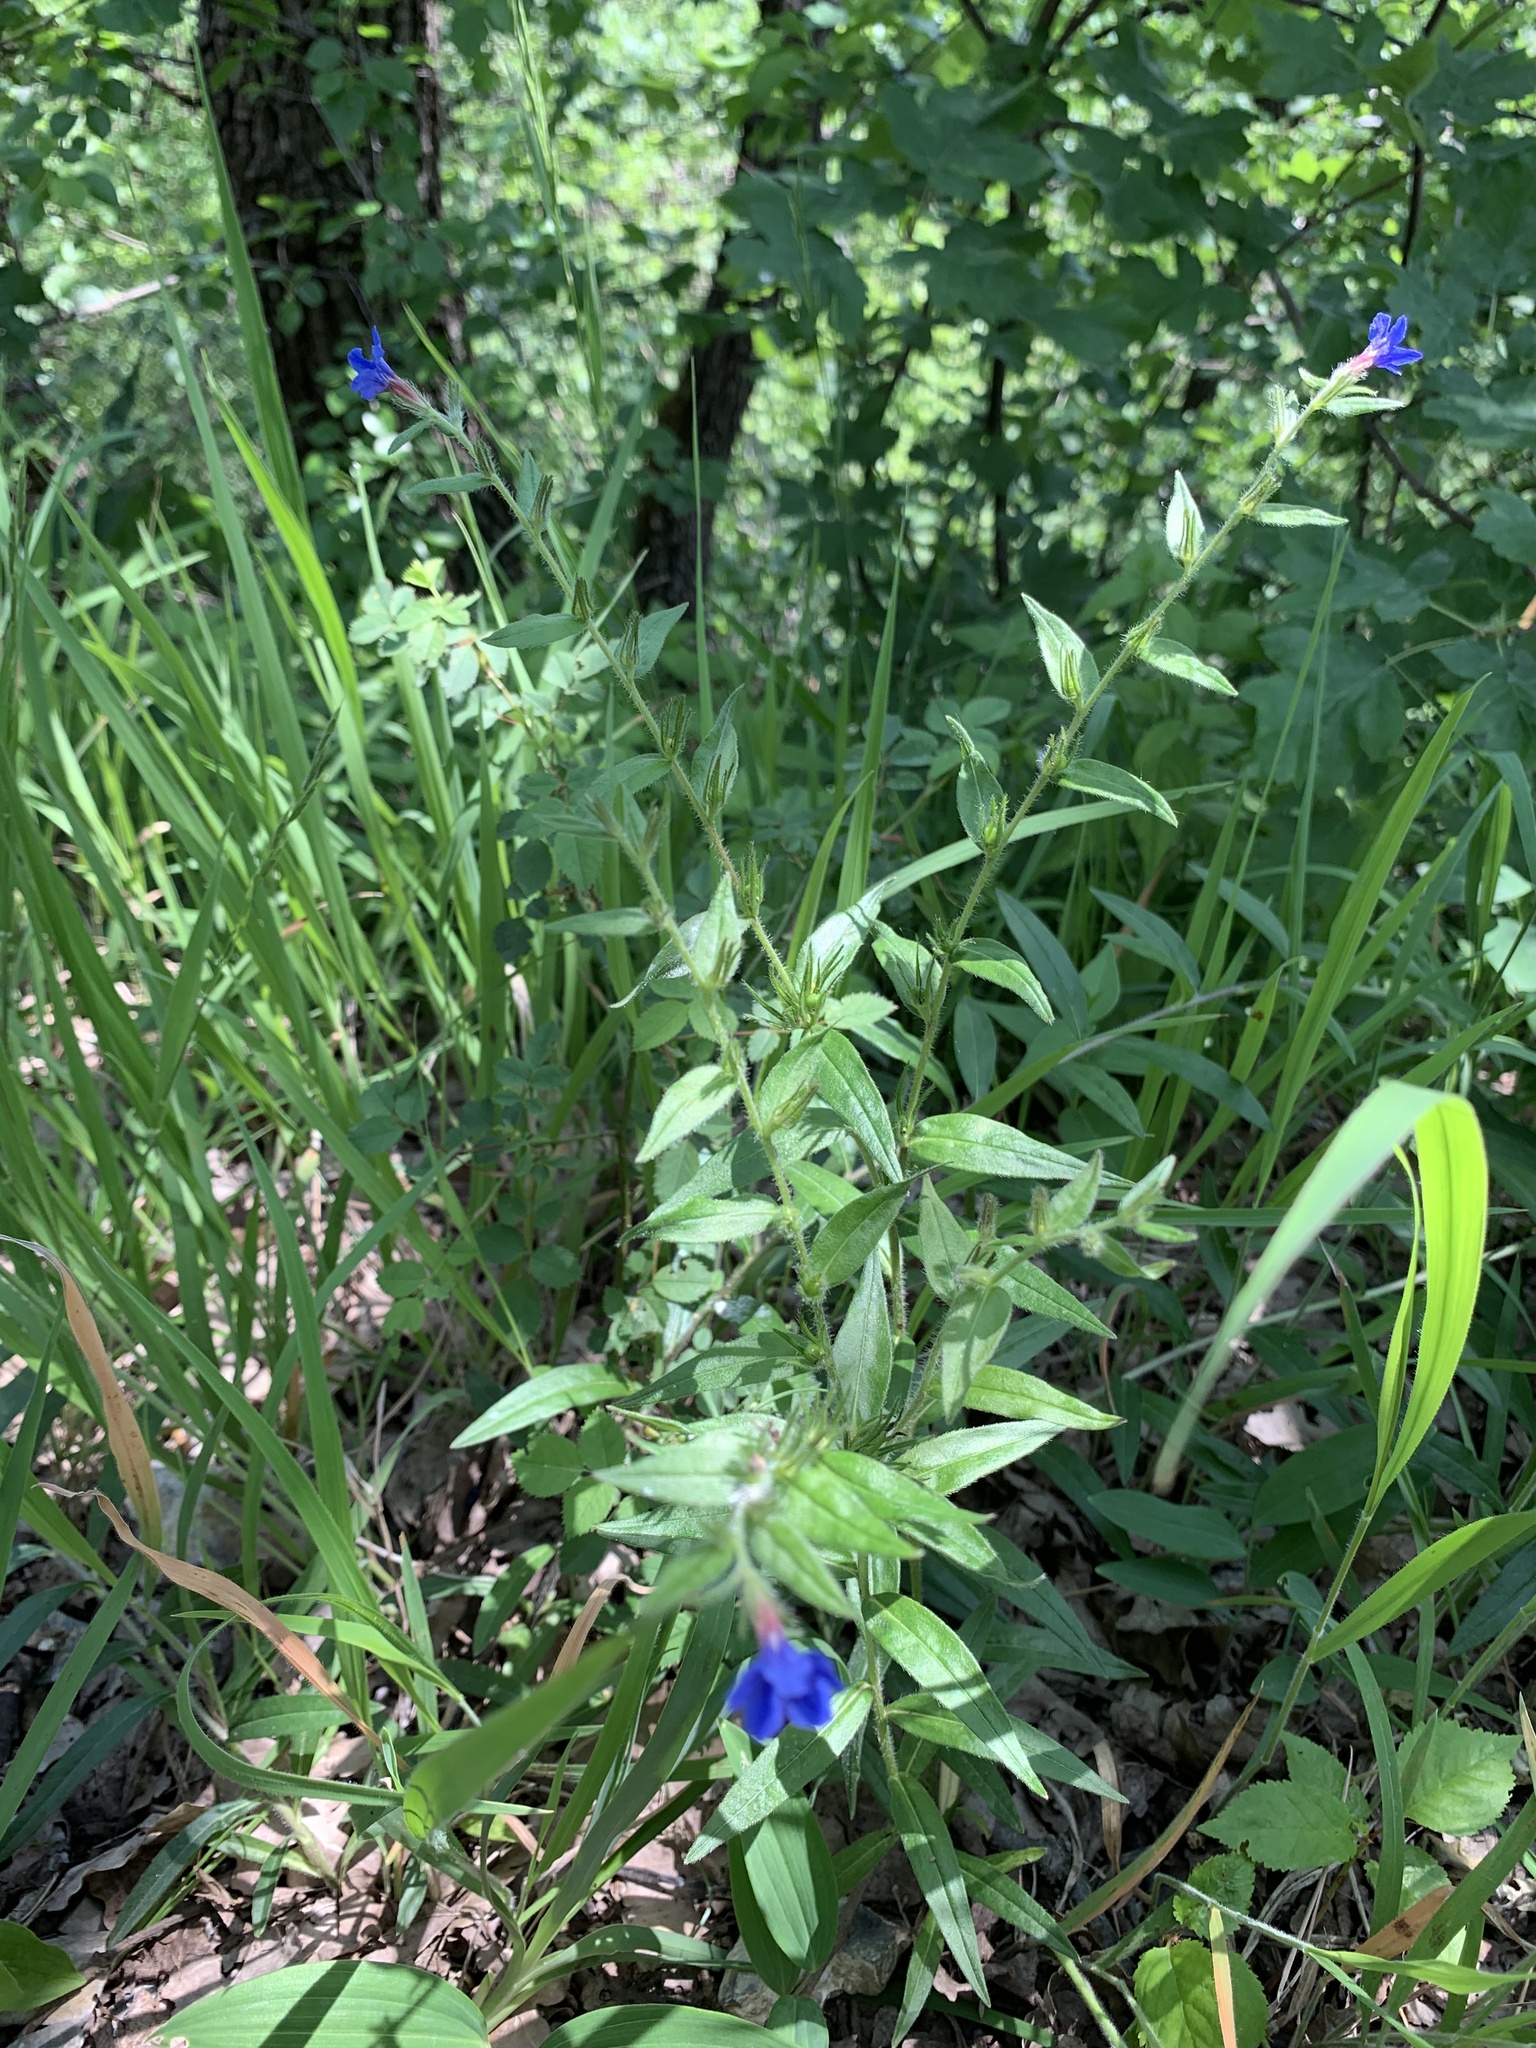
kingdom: Plantae
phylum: Tracheophyta
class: Magnoliopsida
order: Boraginales
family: Boraginaceae
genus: Aegonychon
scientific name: Aegonychon purpurocaeruleum
